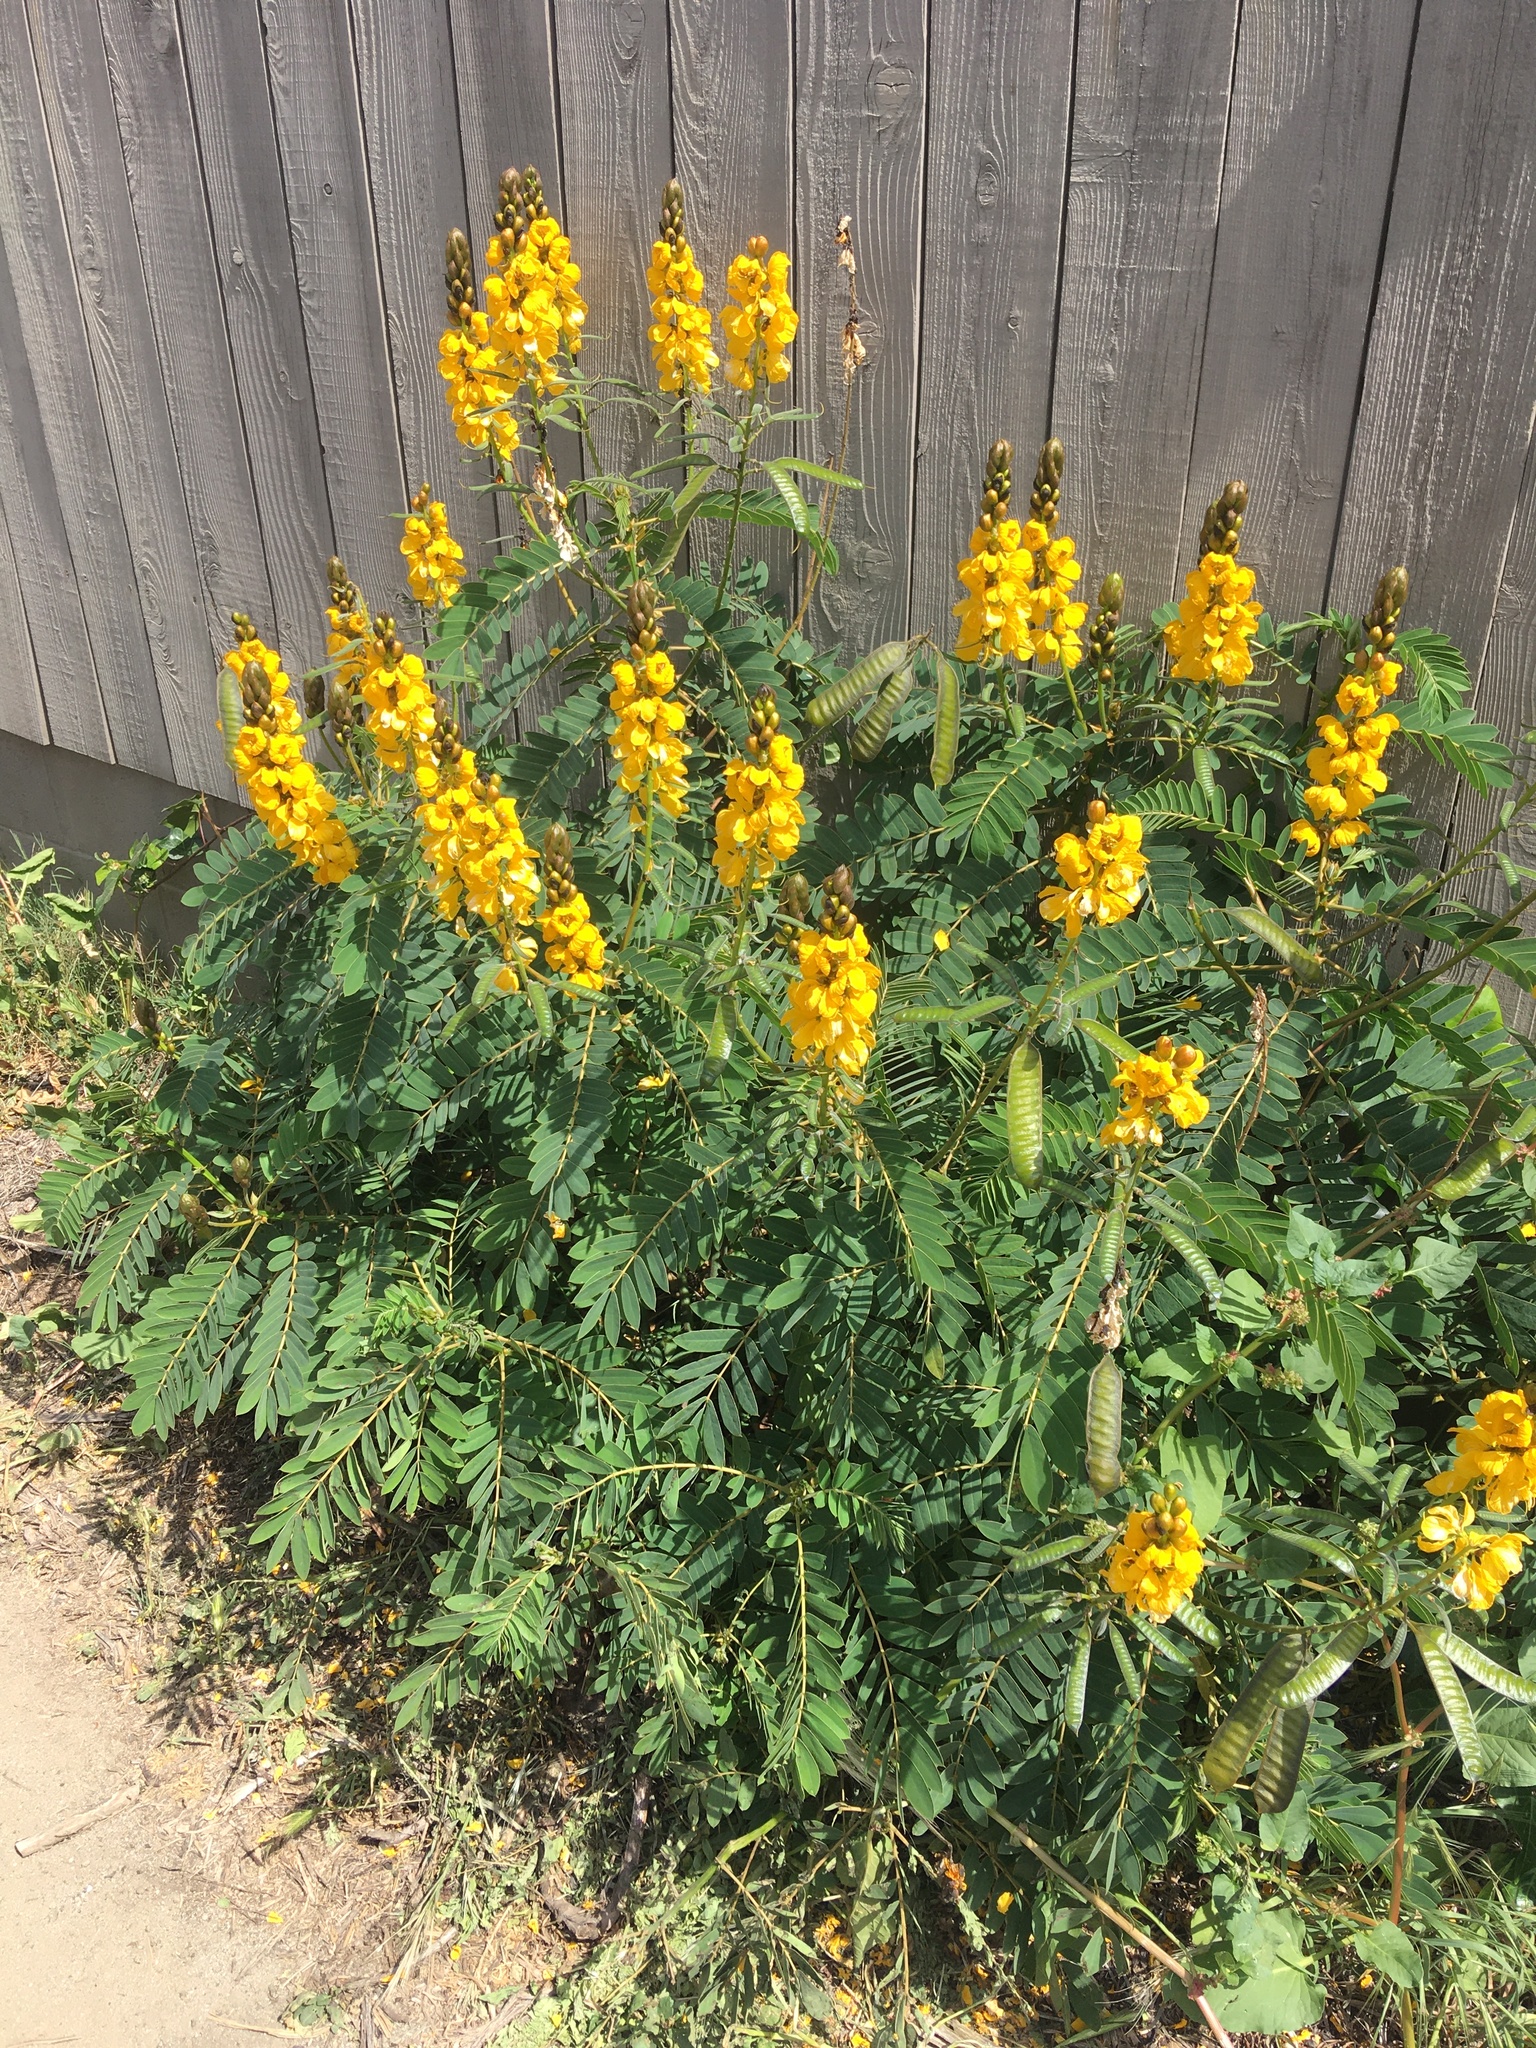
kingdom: Plantae
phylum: Tracheophyta
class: Magnoliopsida
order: Fabales
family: Fabaceae
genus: Senna
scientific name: Senna didymobotrya
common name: African senna
